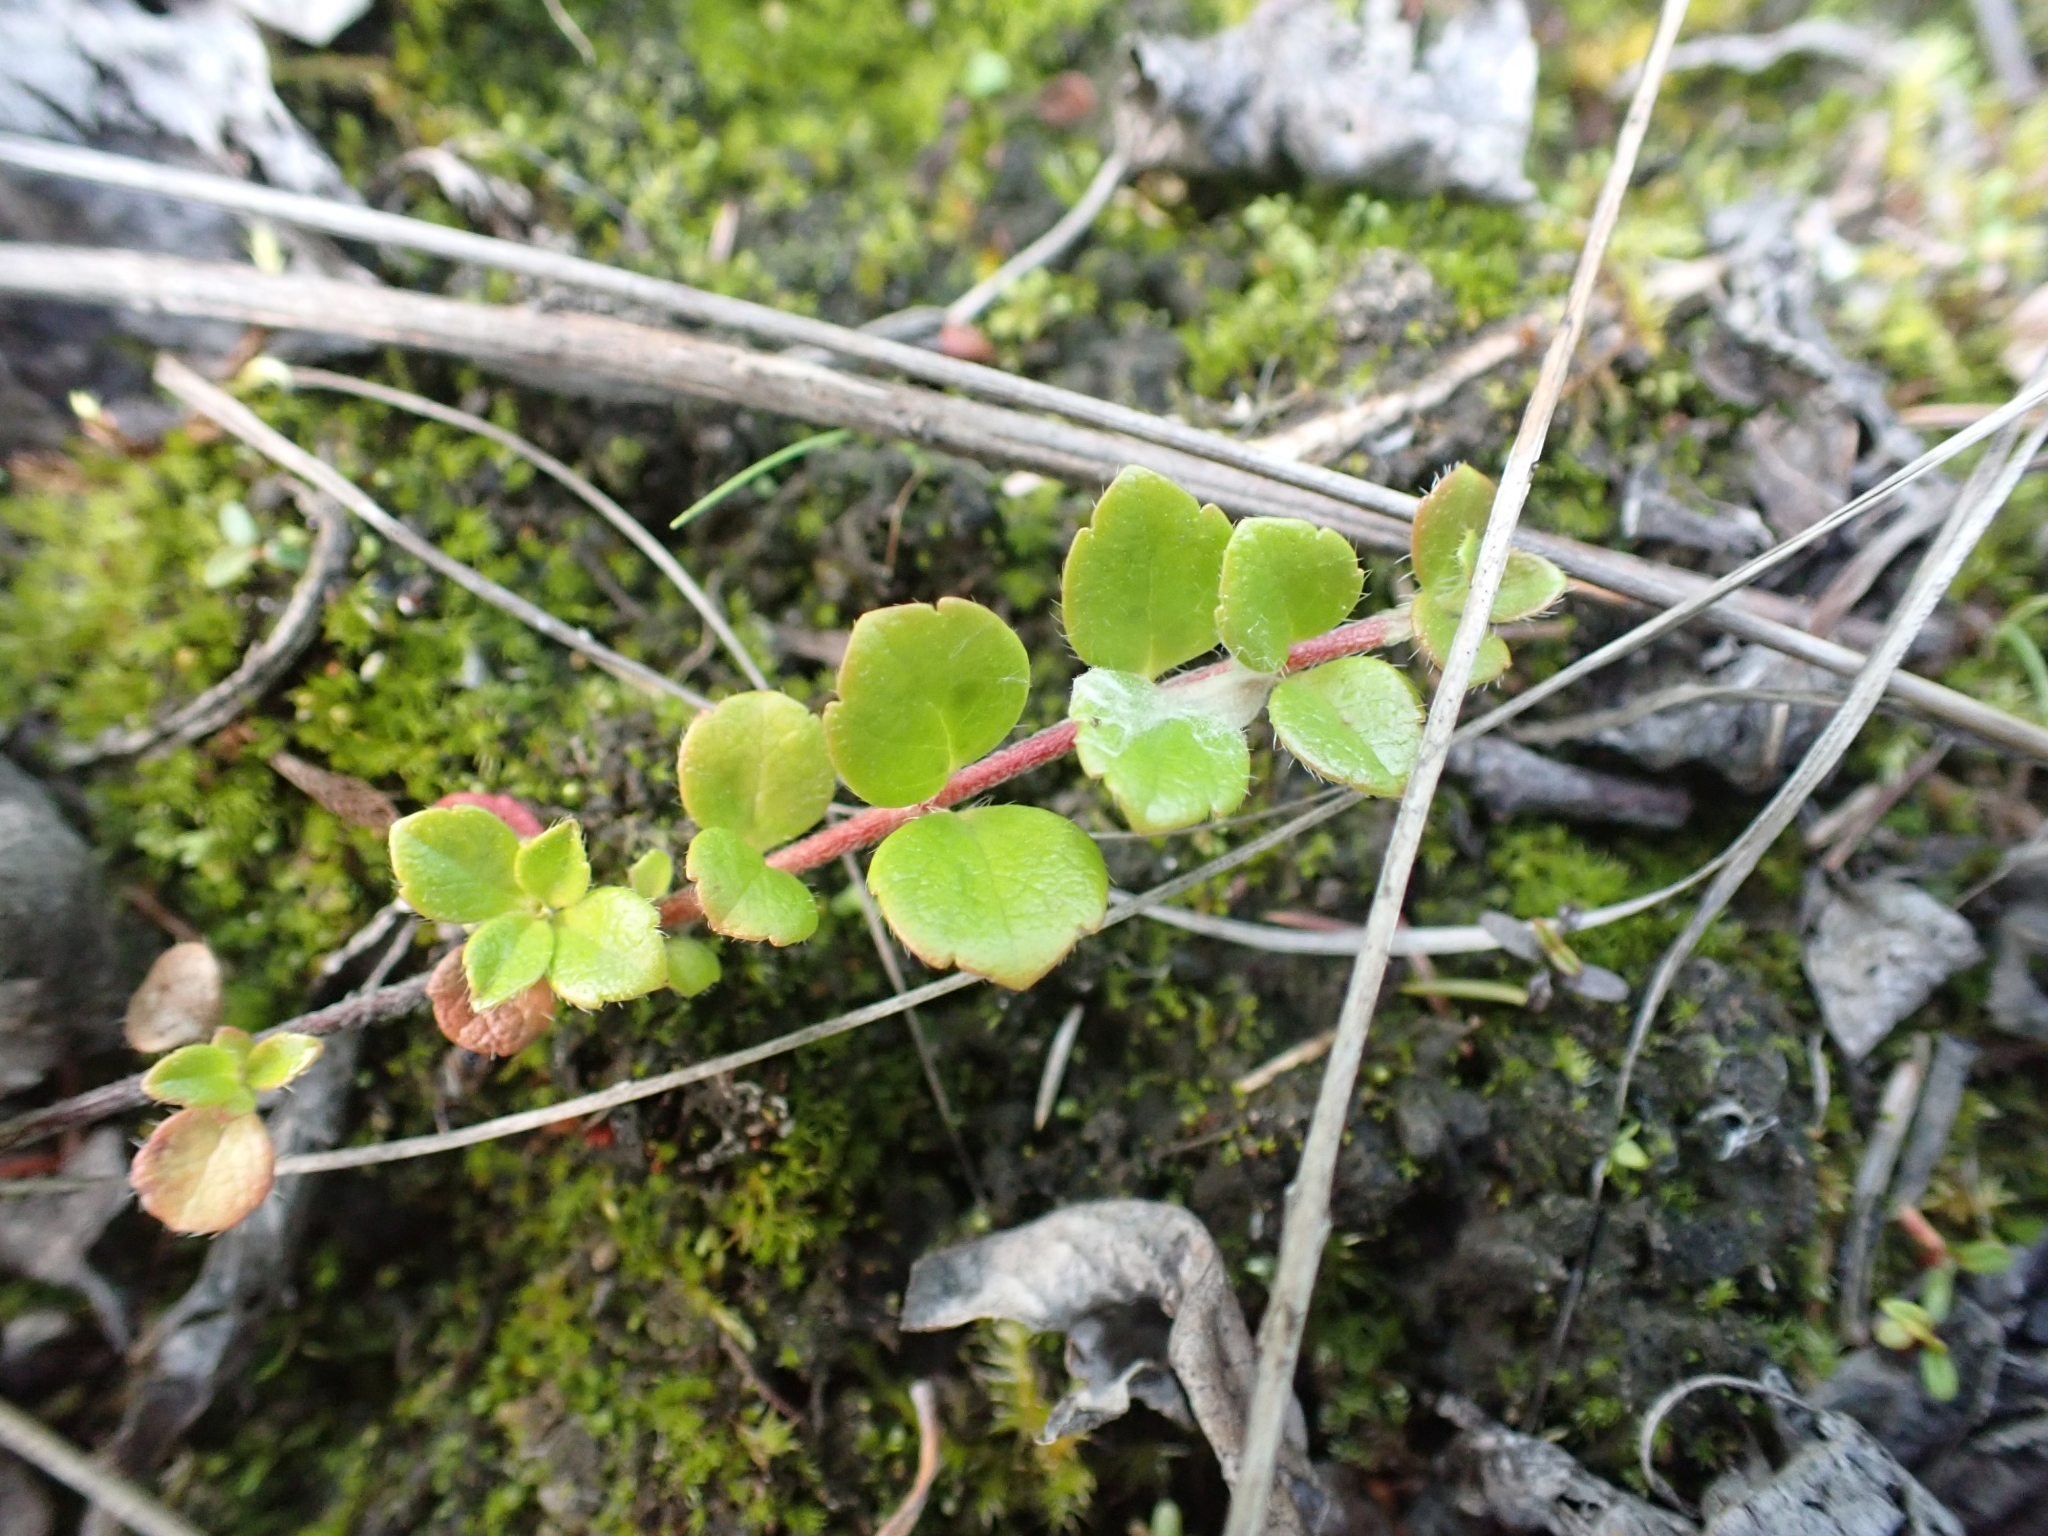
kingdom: Plantae
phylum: Tracheophyta
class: Magnoliopsida
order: Dipsacales
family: Caprifoliaceae
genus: Linnaea
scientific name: Linnaea borealis
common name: Twinflower
